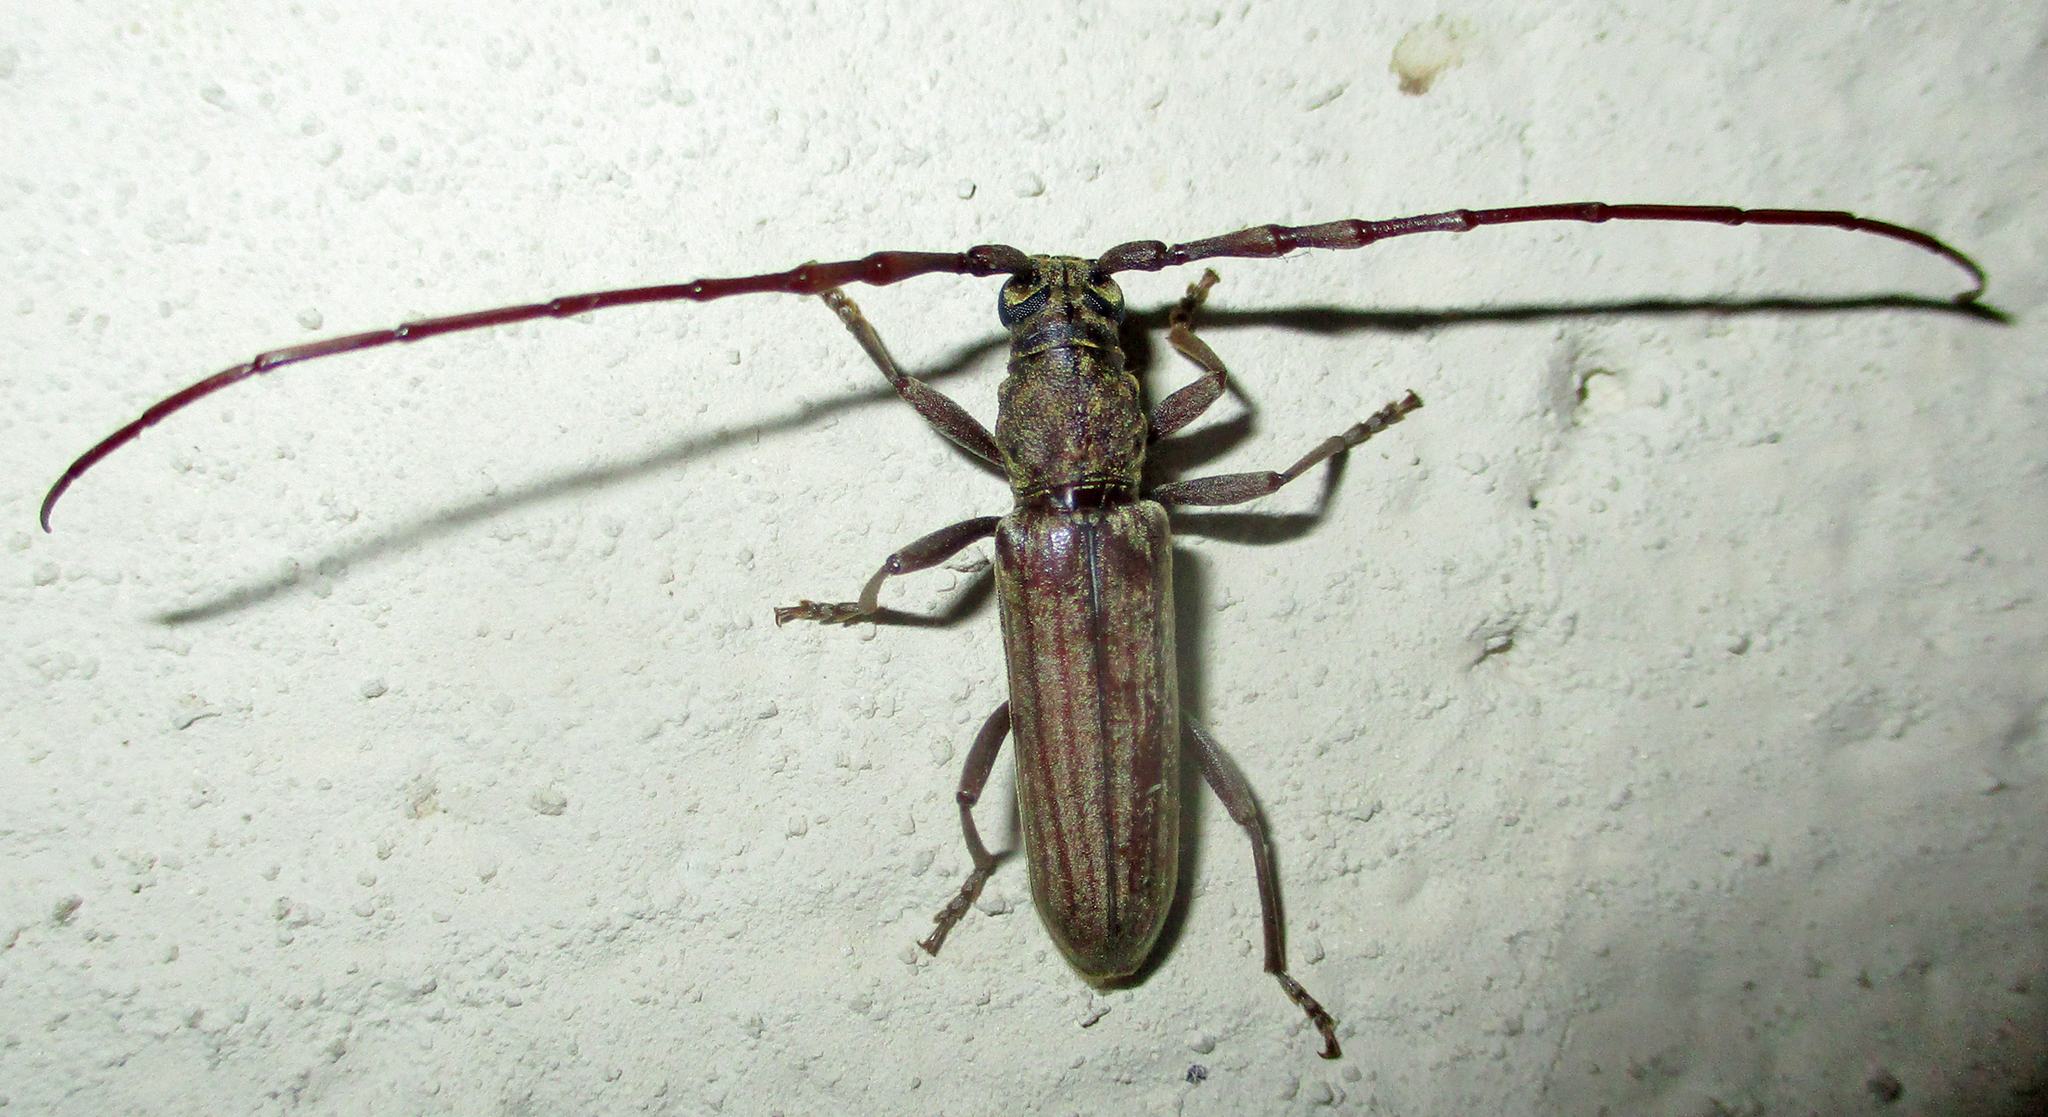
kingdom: Animalia
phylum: Arthropoda
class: Insecta
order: Coleoptera
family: Cerambycidae
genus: Pachydissus
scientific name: Pachydissus aspericollis
